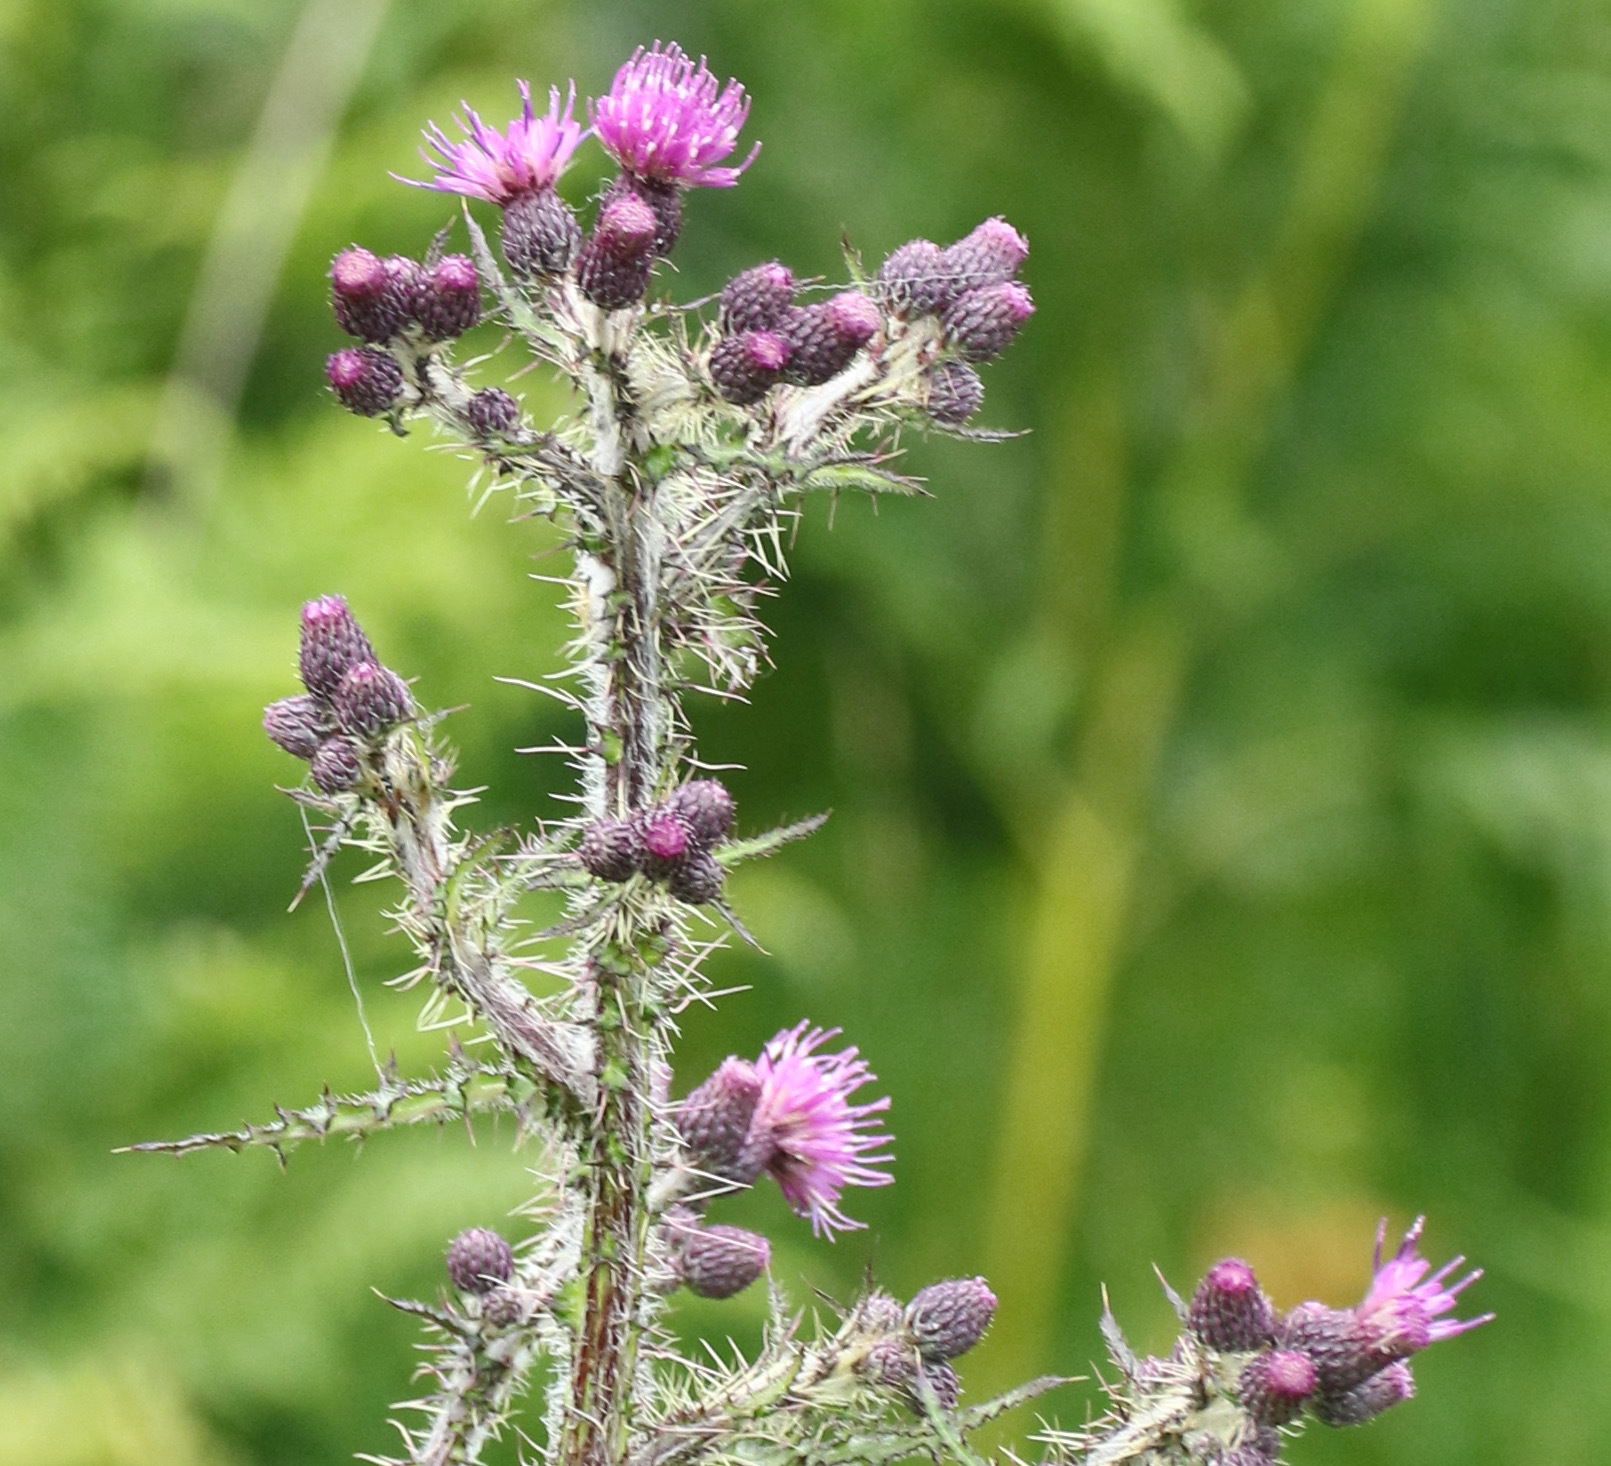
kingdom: Plantae
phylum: Tracheophyta
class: Magnoliopsida
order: Asterales
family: Asteraceae
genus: Cirsium
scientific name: Cirsium palustre
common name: Marsh thistle
